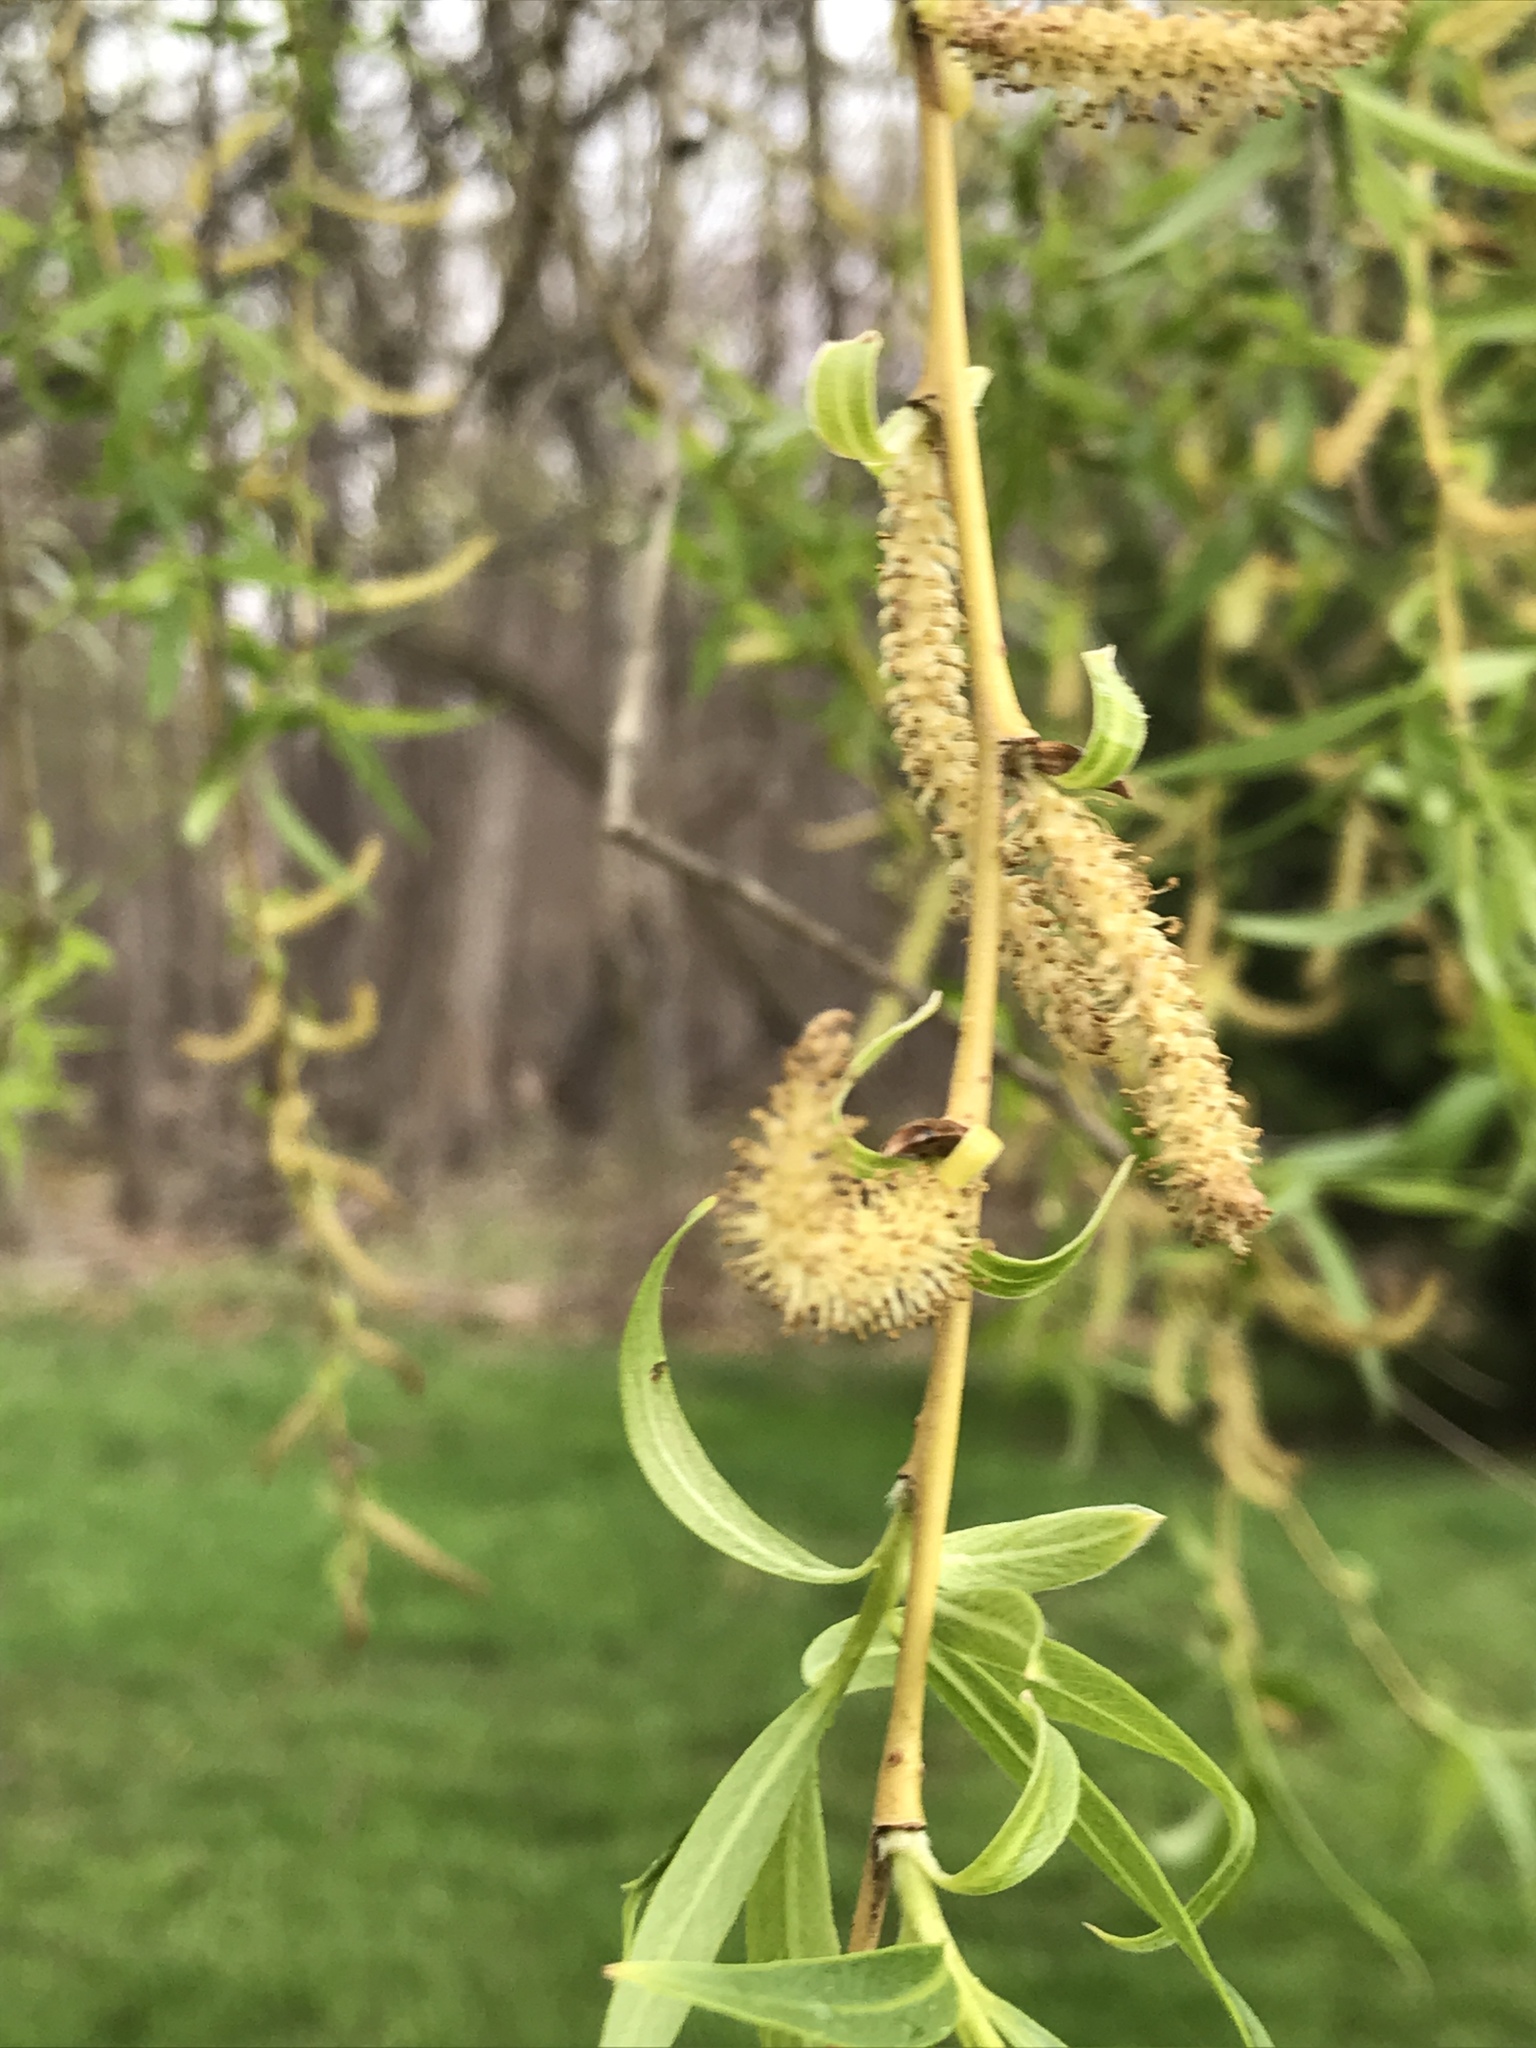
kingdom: Plantae
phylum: Tracheophyta
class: Magnoliopsida
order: Malpighiales
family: Salicaceae
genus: Salix
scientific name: Salix babylonica
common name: Weeping willow
